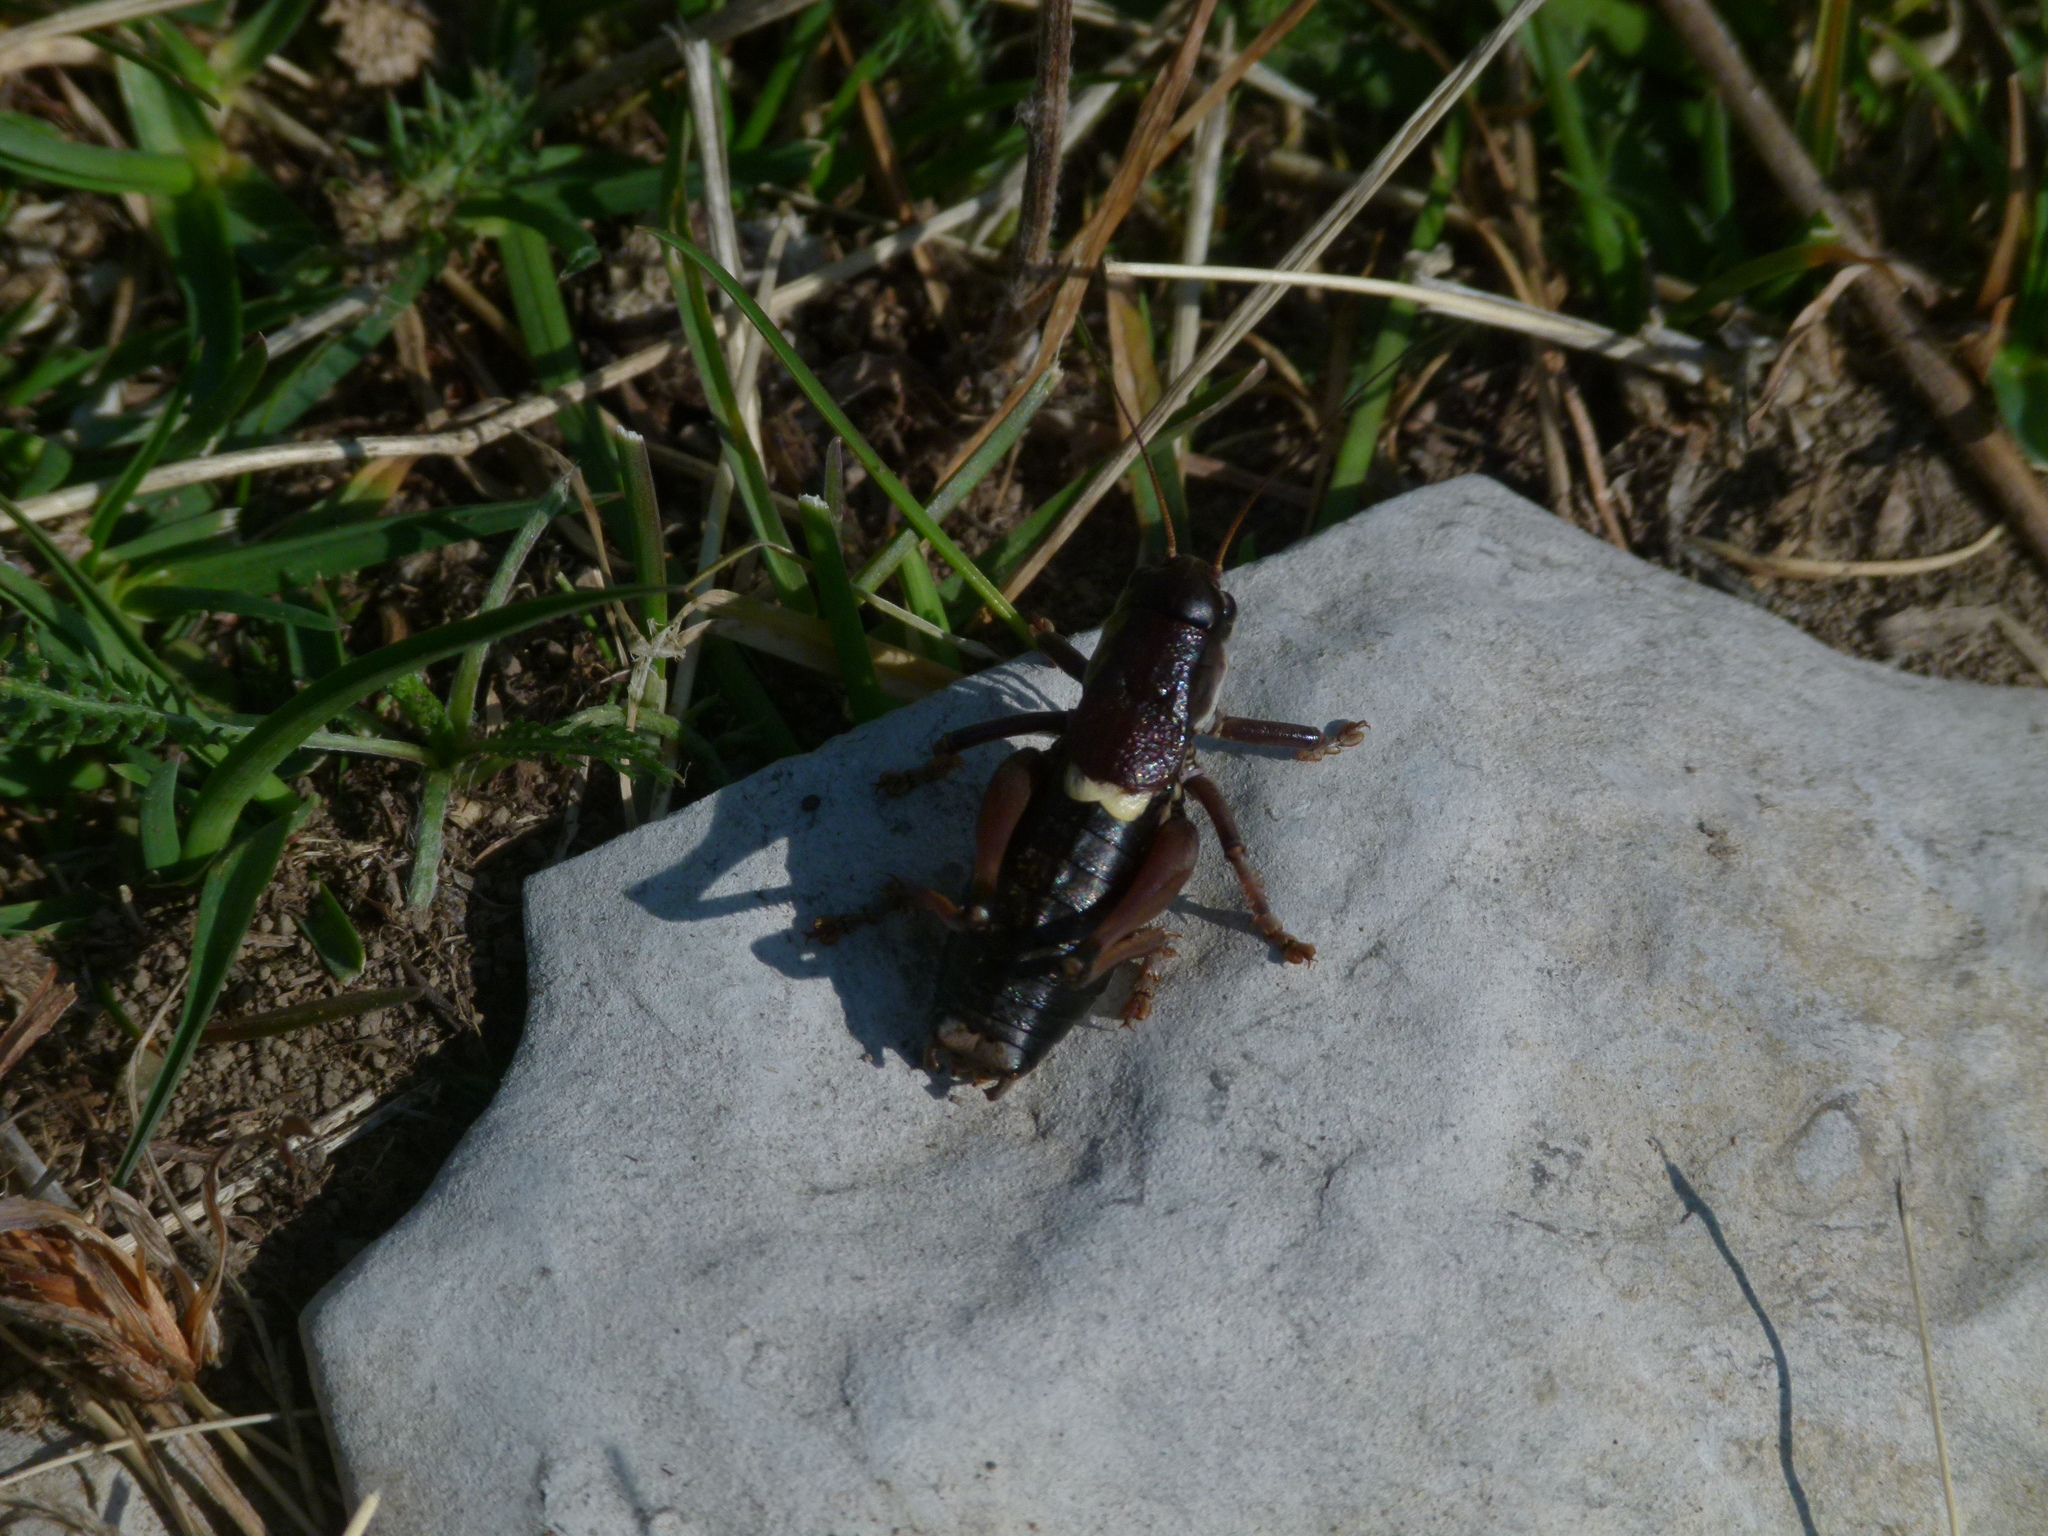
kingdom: Animalia
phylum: Arthropoda
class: Insecta
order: Orthoptera
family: Tettigoniidae
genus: Anonconotus
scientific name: Anonconotus ghilianii
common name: Ghiliani's alpine bush-cricket
